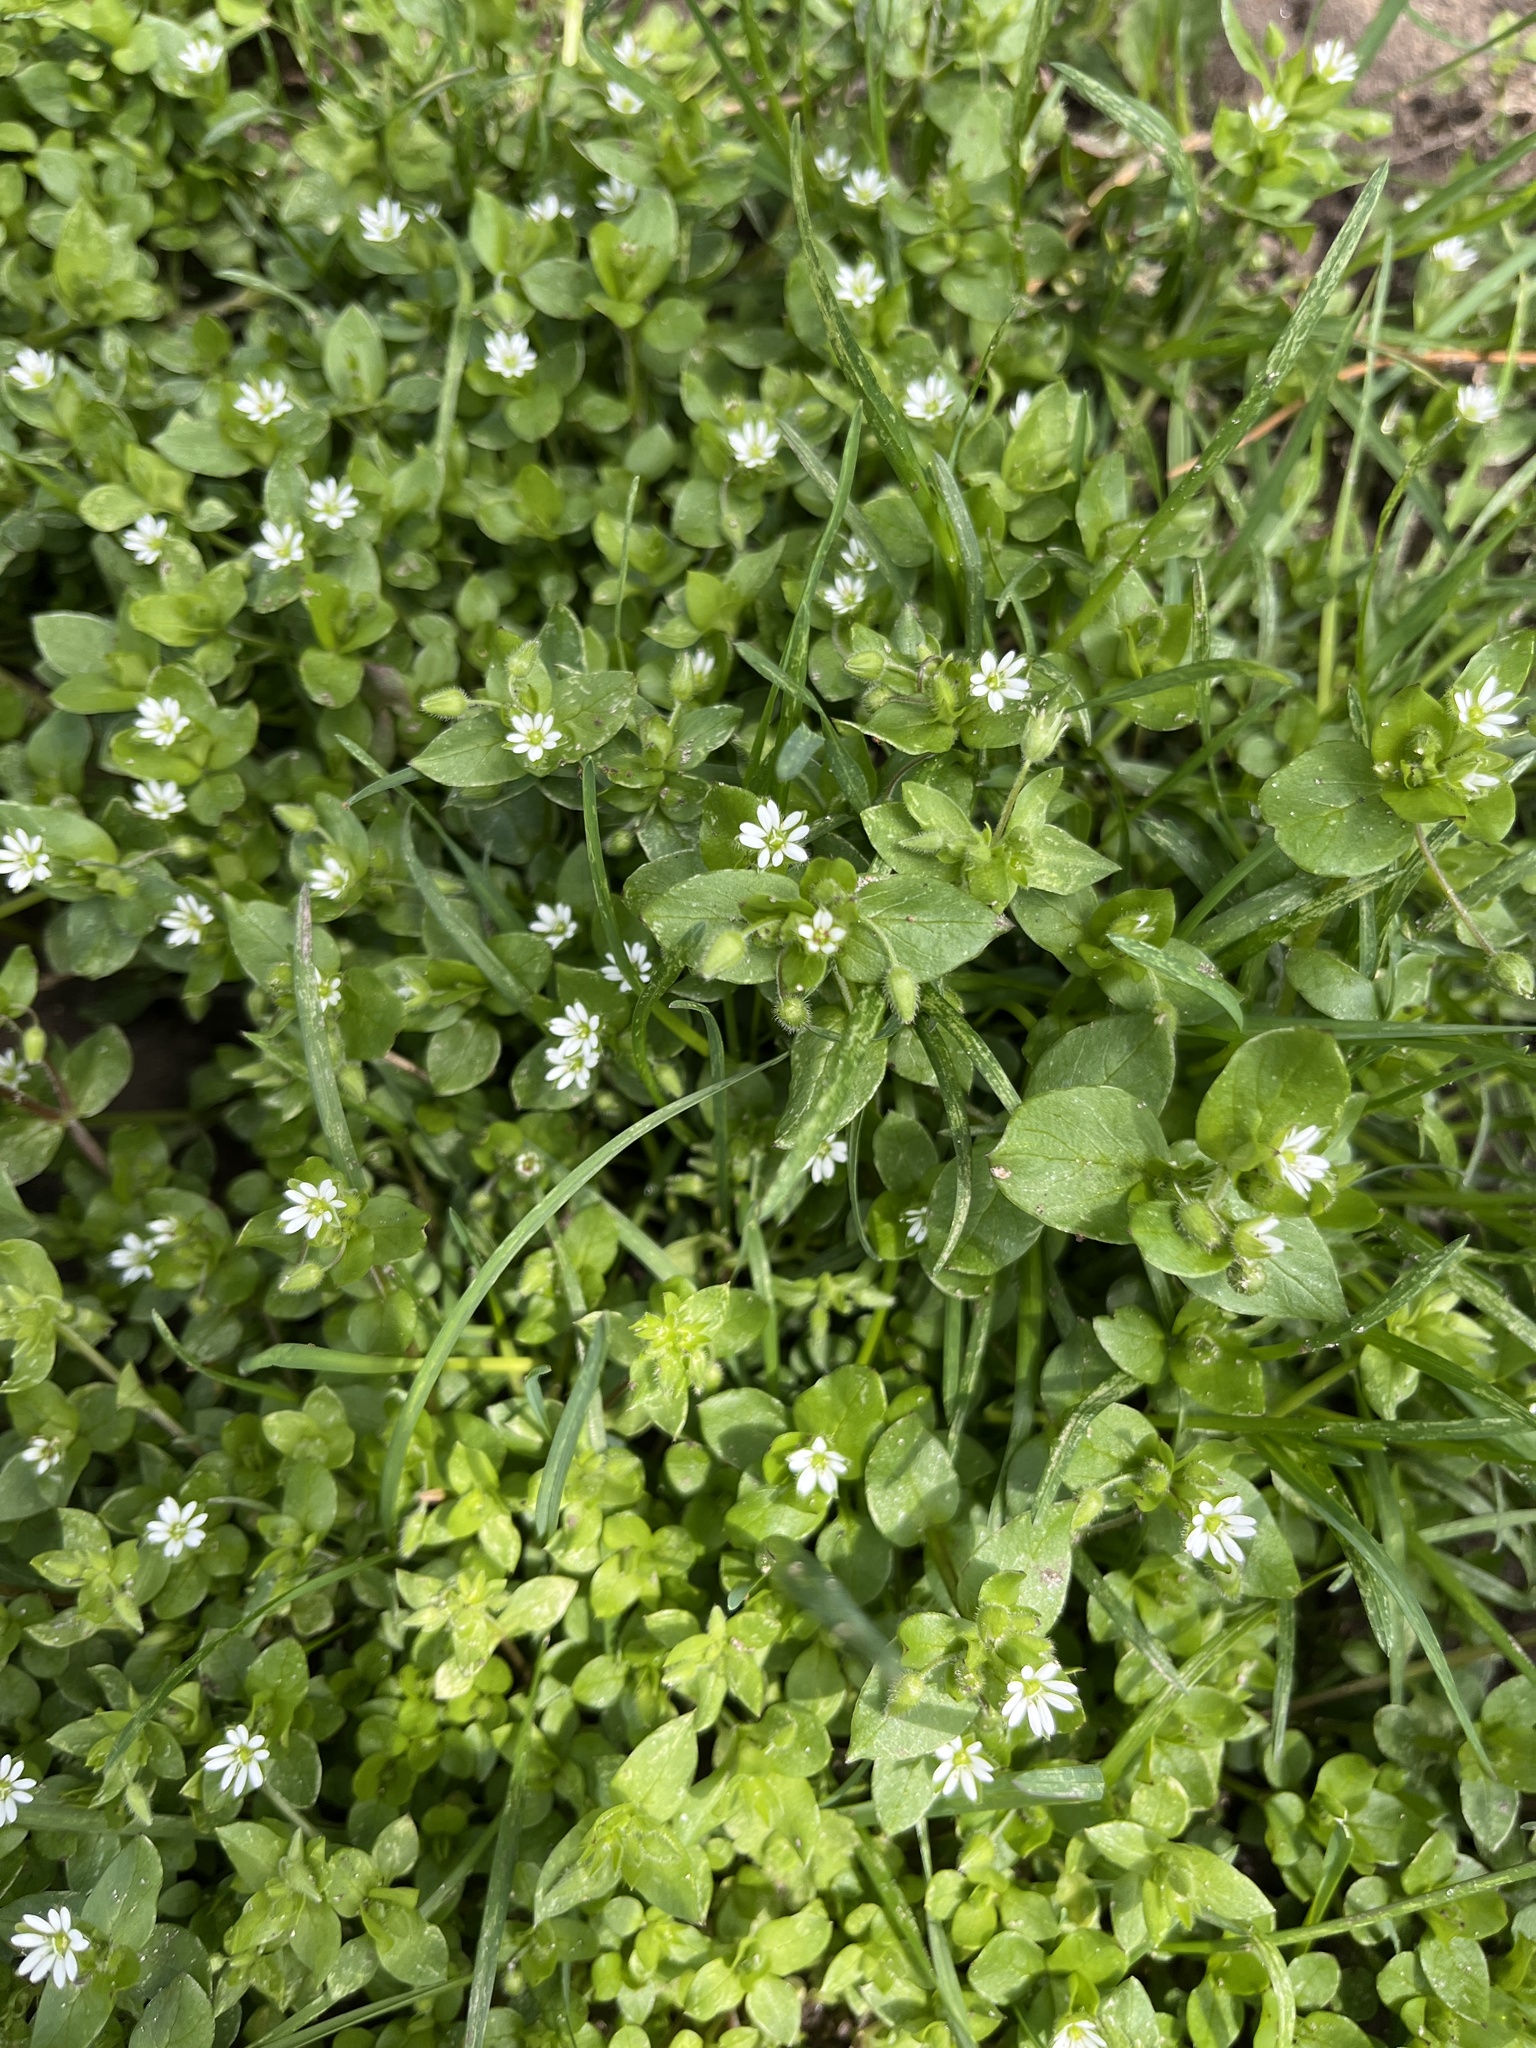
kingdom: Plantae
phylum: Tracheophyta
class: Magnoliopsida
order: Caryophyllales
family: Caryophyllaceae
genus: Stellaria
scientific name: Stellaria media
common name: Common chickweed
